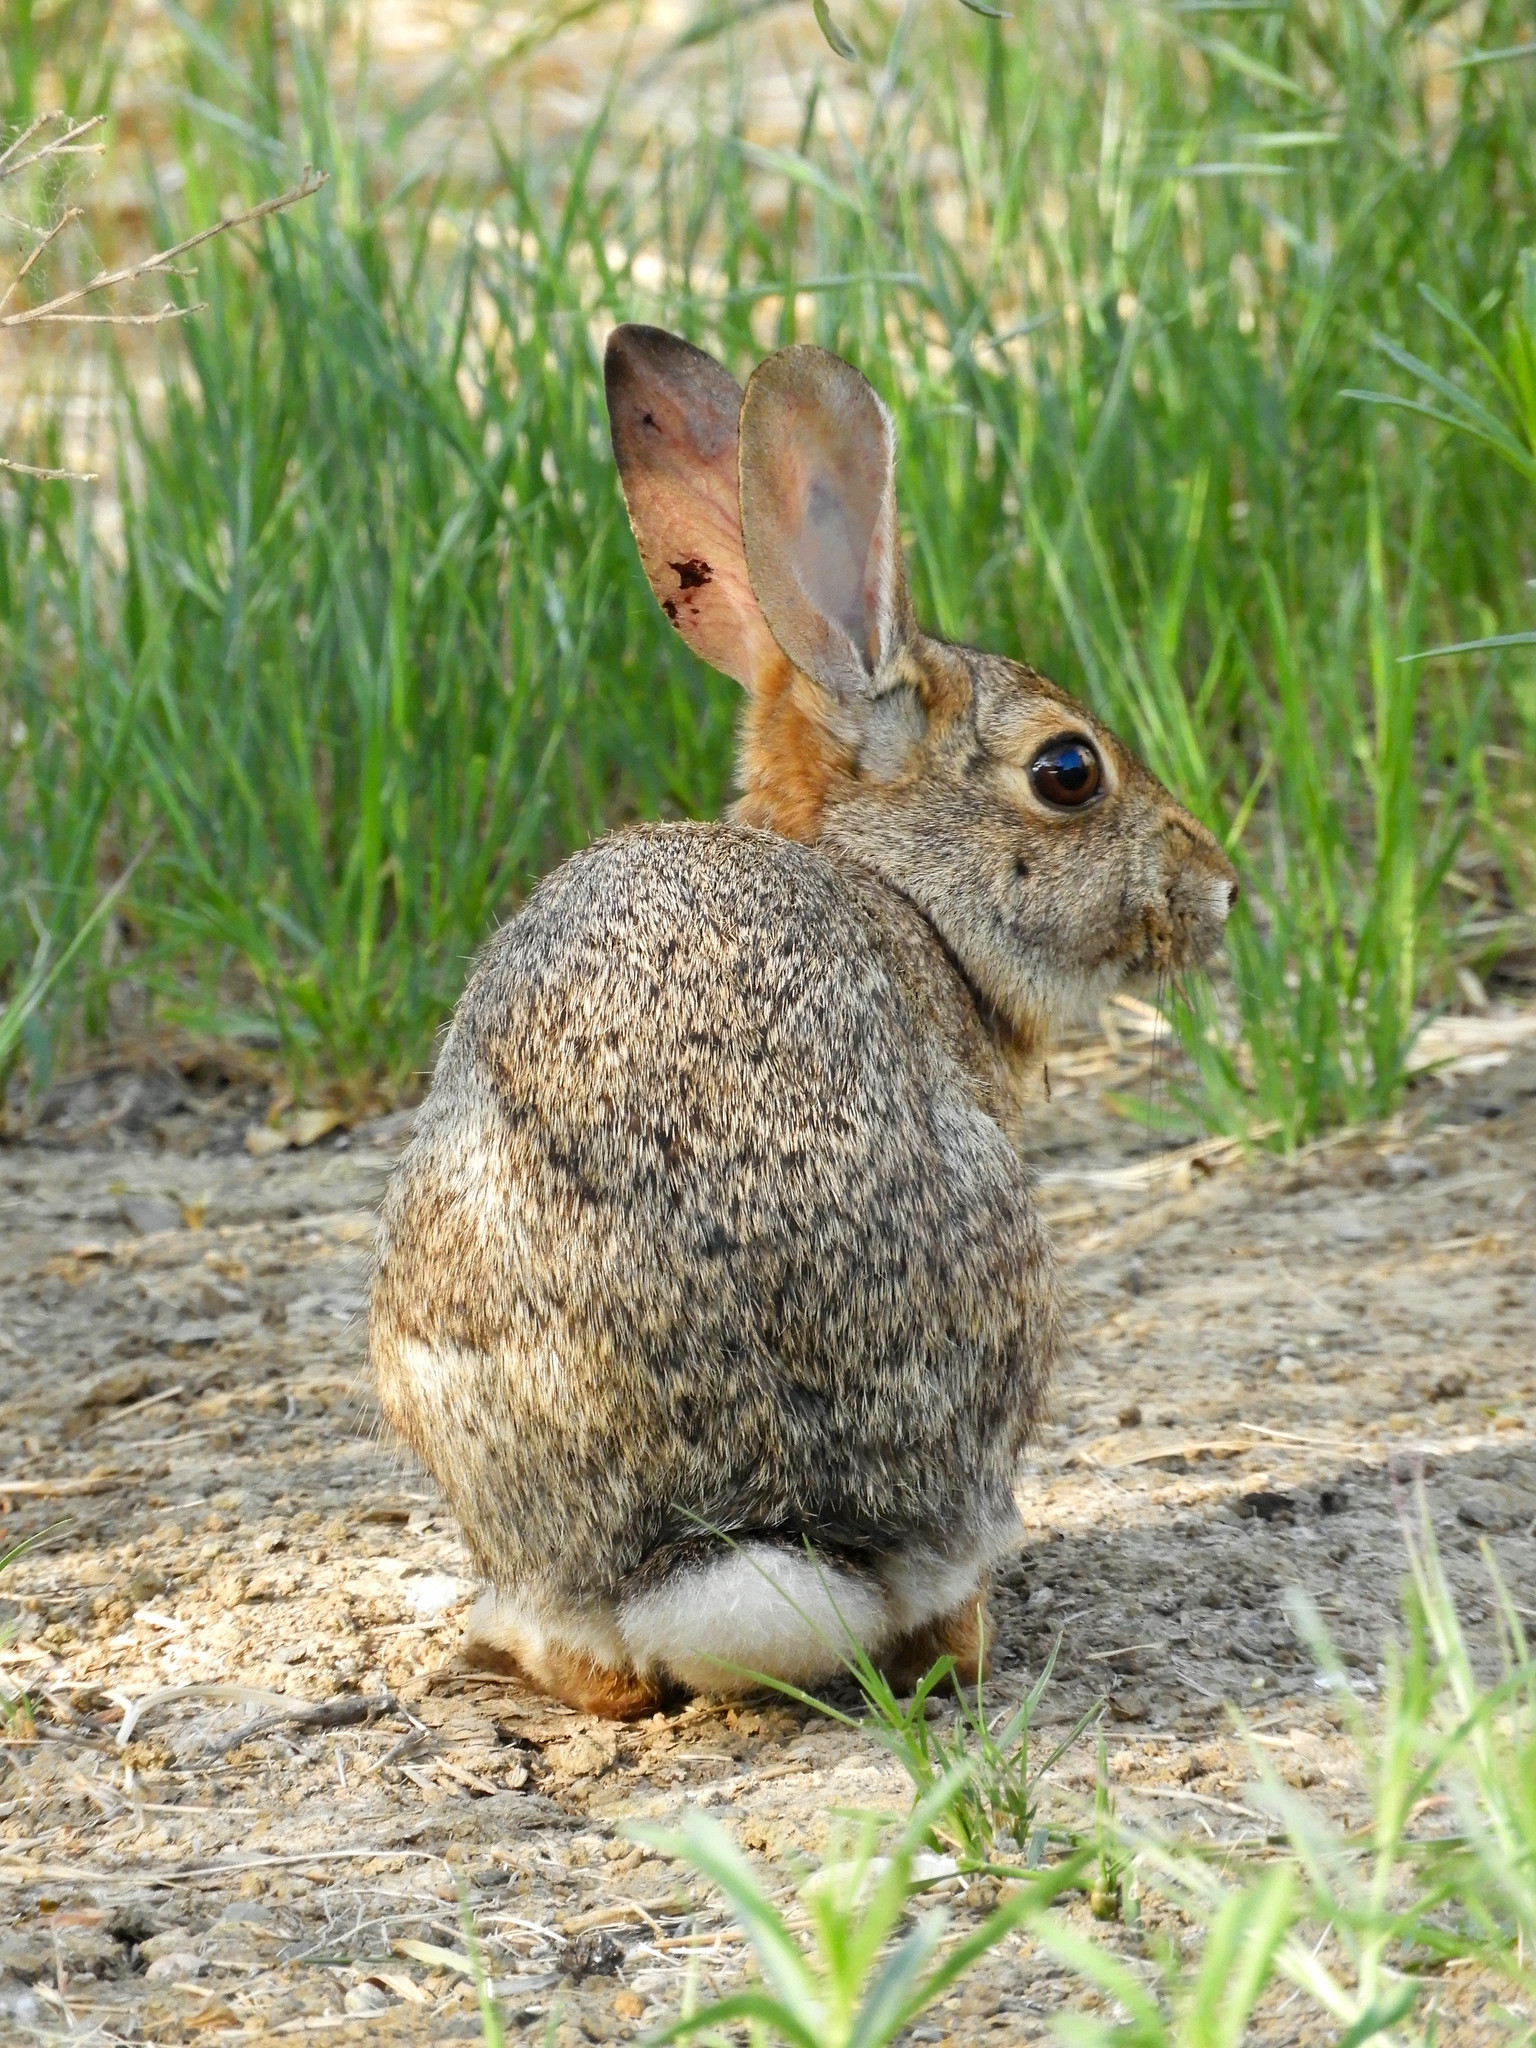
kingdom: Animalia
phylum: Chordata
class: Mammalia
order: Lagomorpha
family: Leporidae
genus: Sylvilagus
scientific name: Sylvilagus audubonii
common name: Desert cottontail
